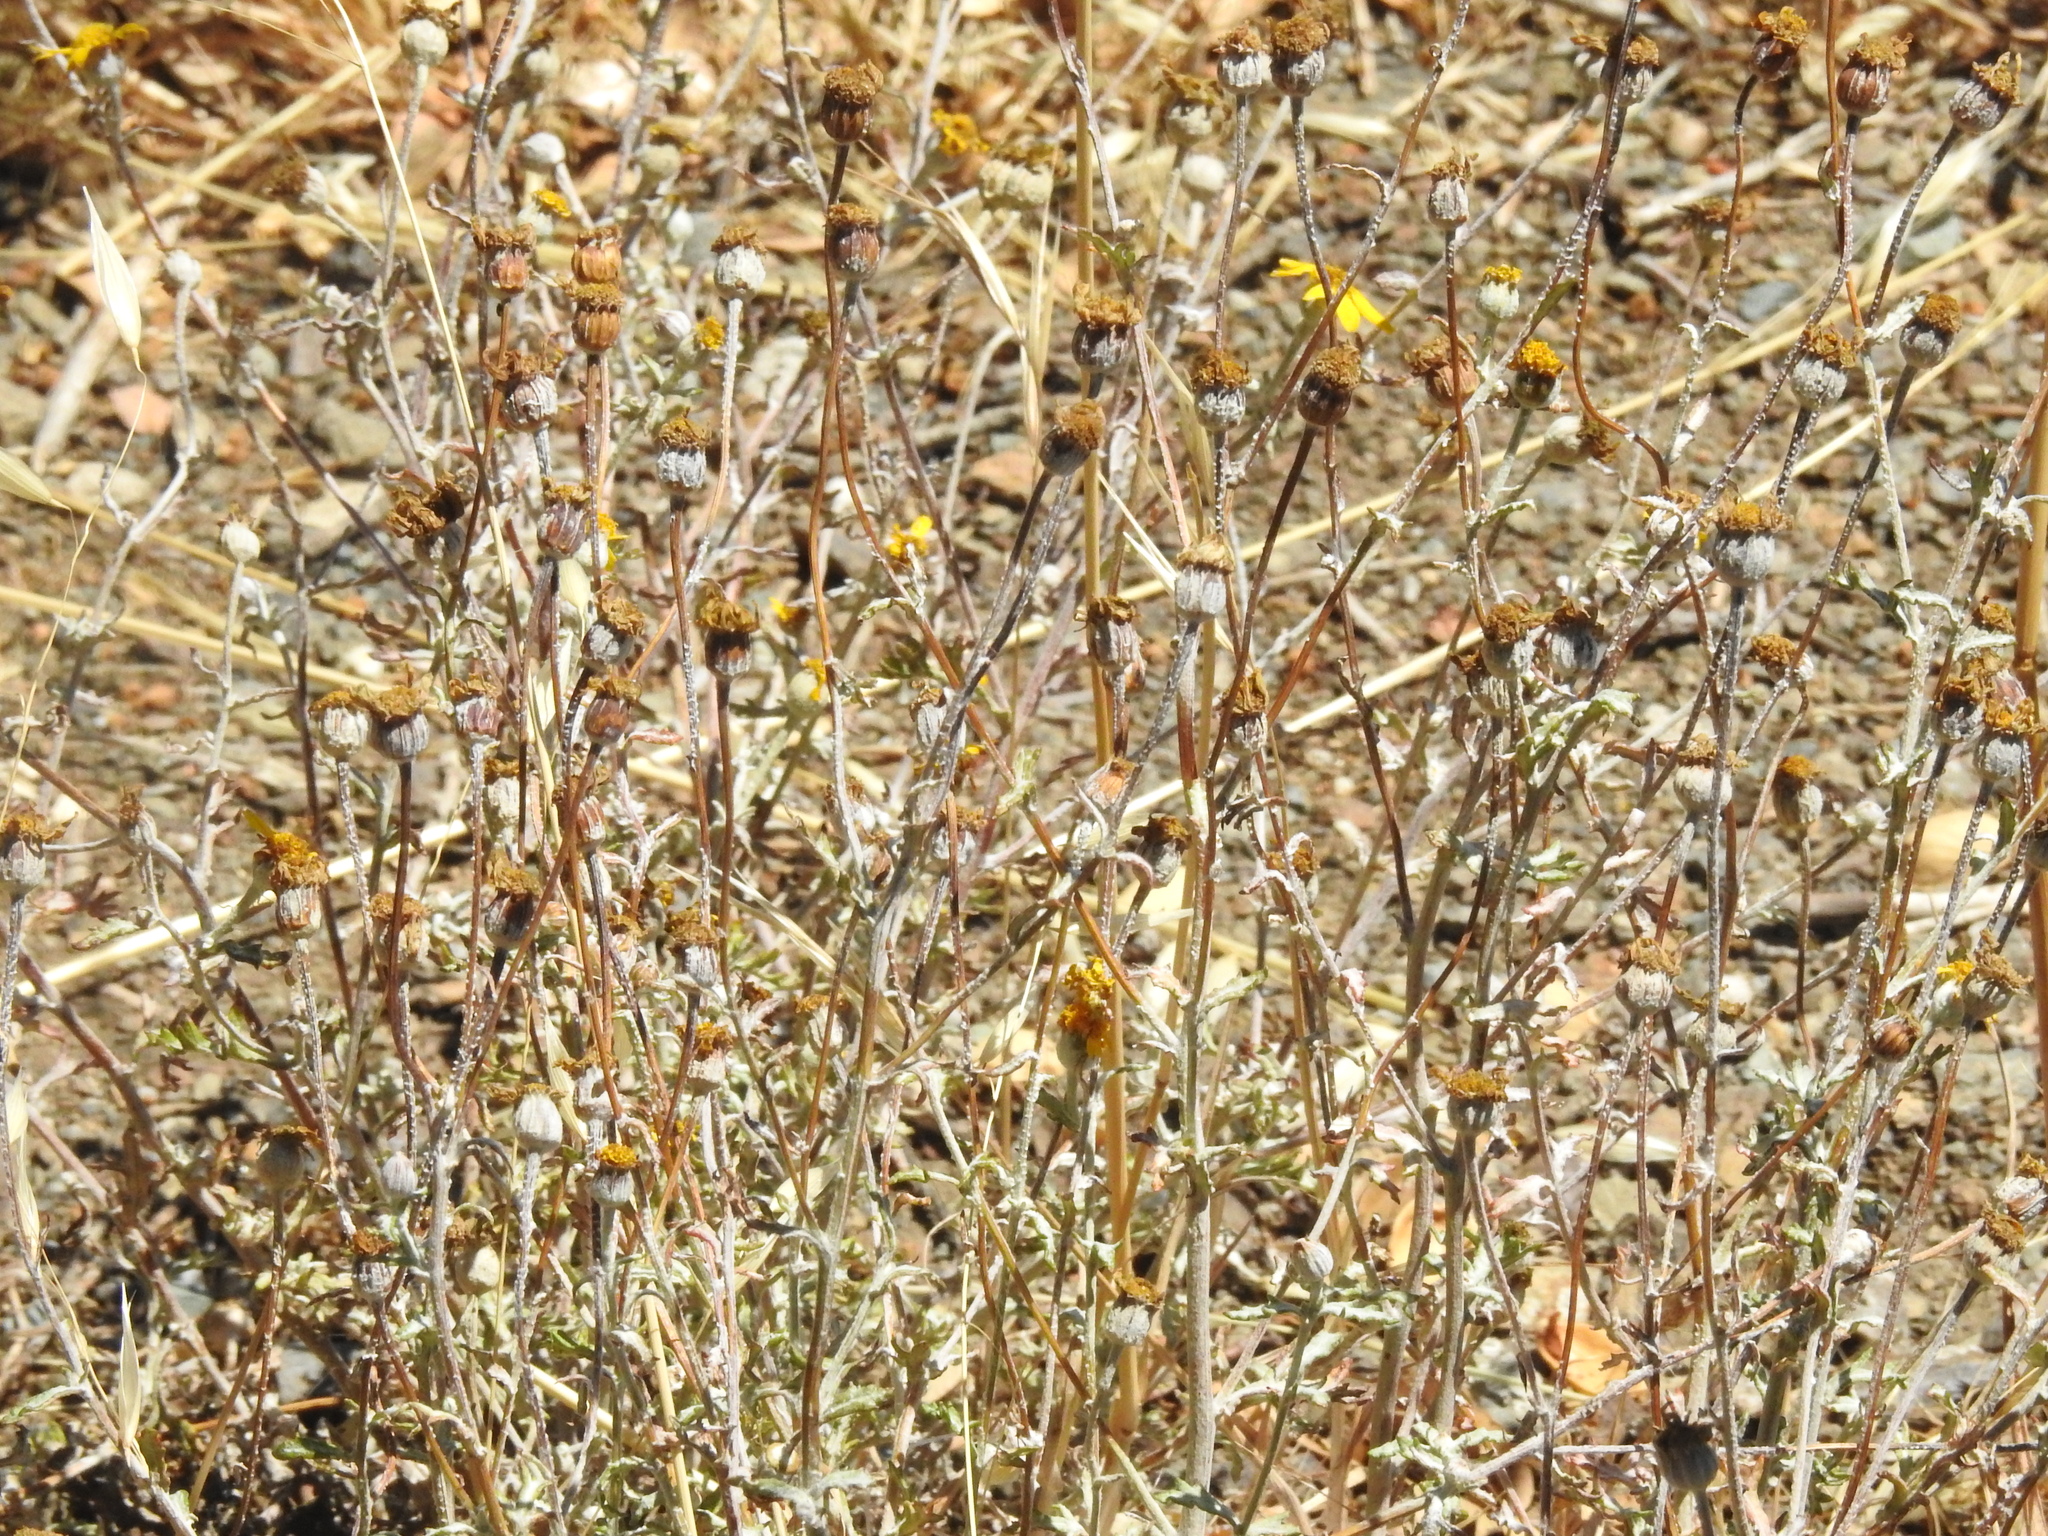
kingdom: Plantae
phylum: Tracheophyta
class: Magnoliopsida
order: Asterales
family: Asteraceae
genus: Eriophyllum
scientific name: Eriophyllum lanatum
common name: Common woolly-sunflower
